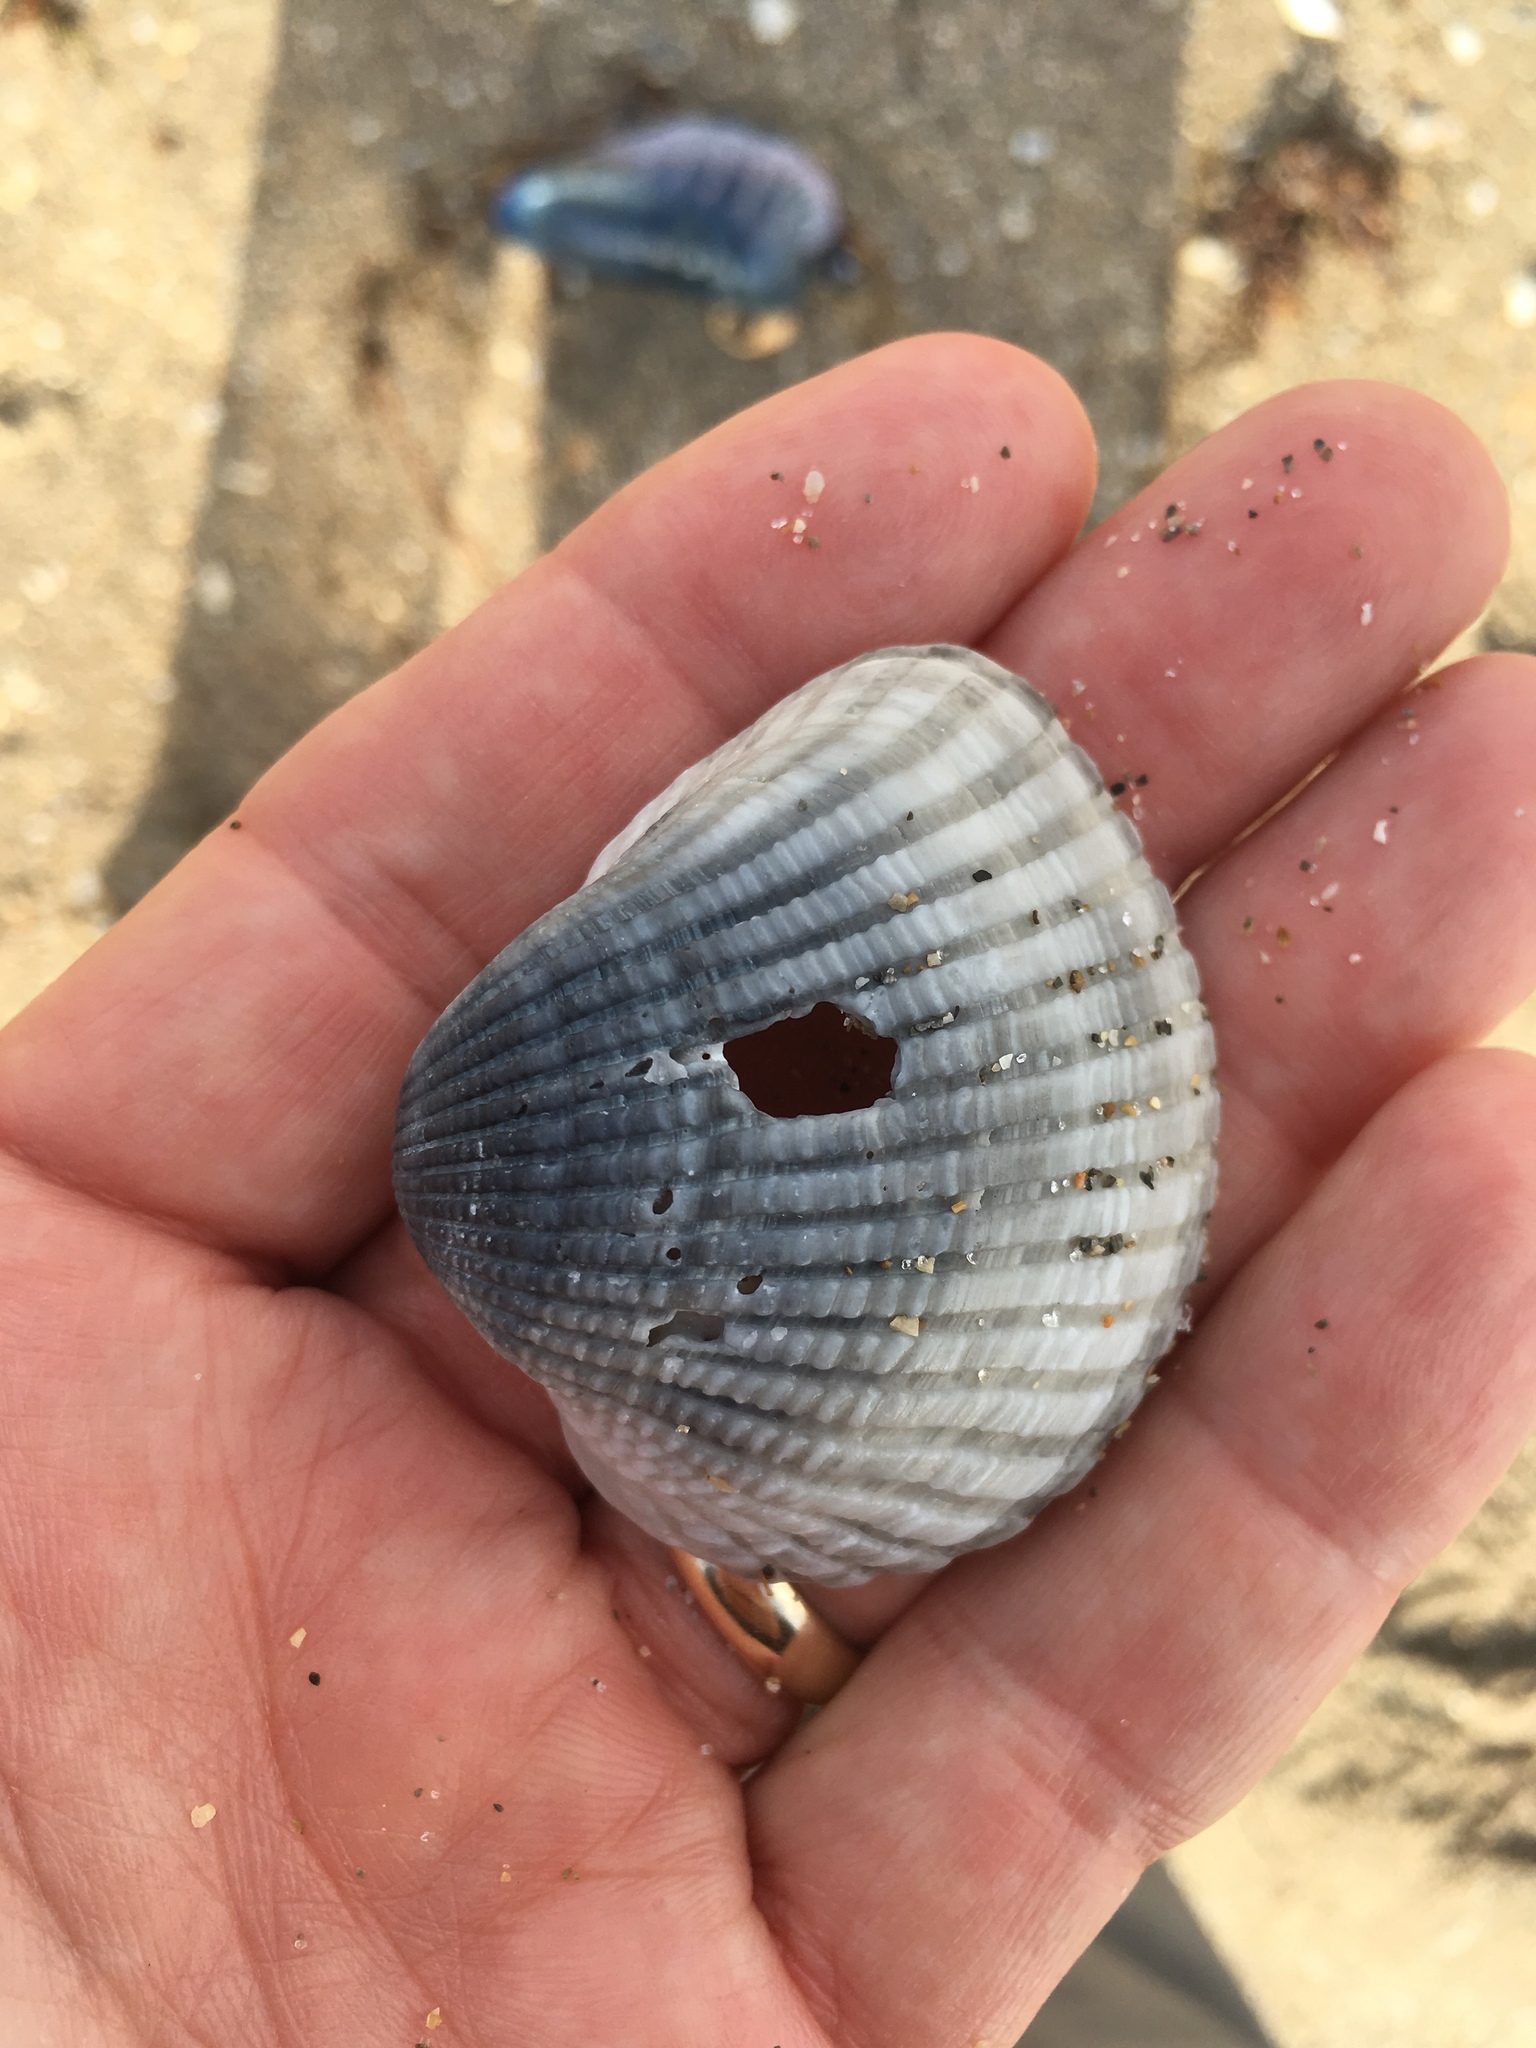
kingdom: Animalia
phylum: Mollusca
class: Bivalvia
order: Arcida
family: Arcidae
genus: Anadara
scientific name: Anadara brasiliana
